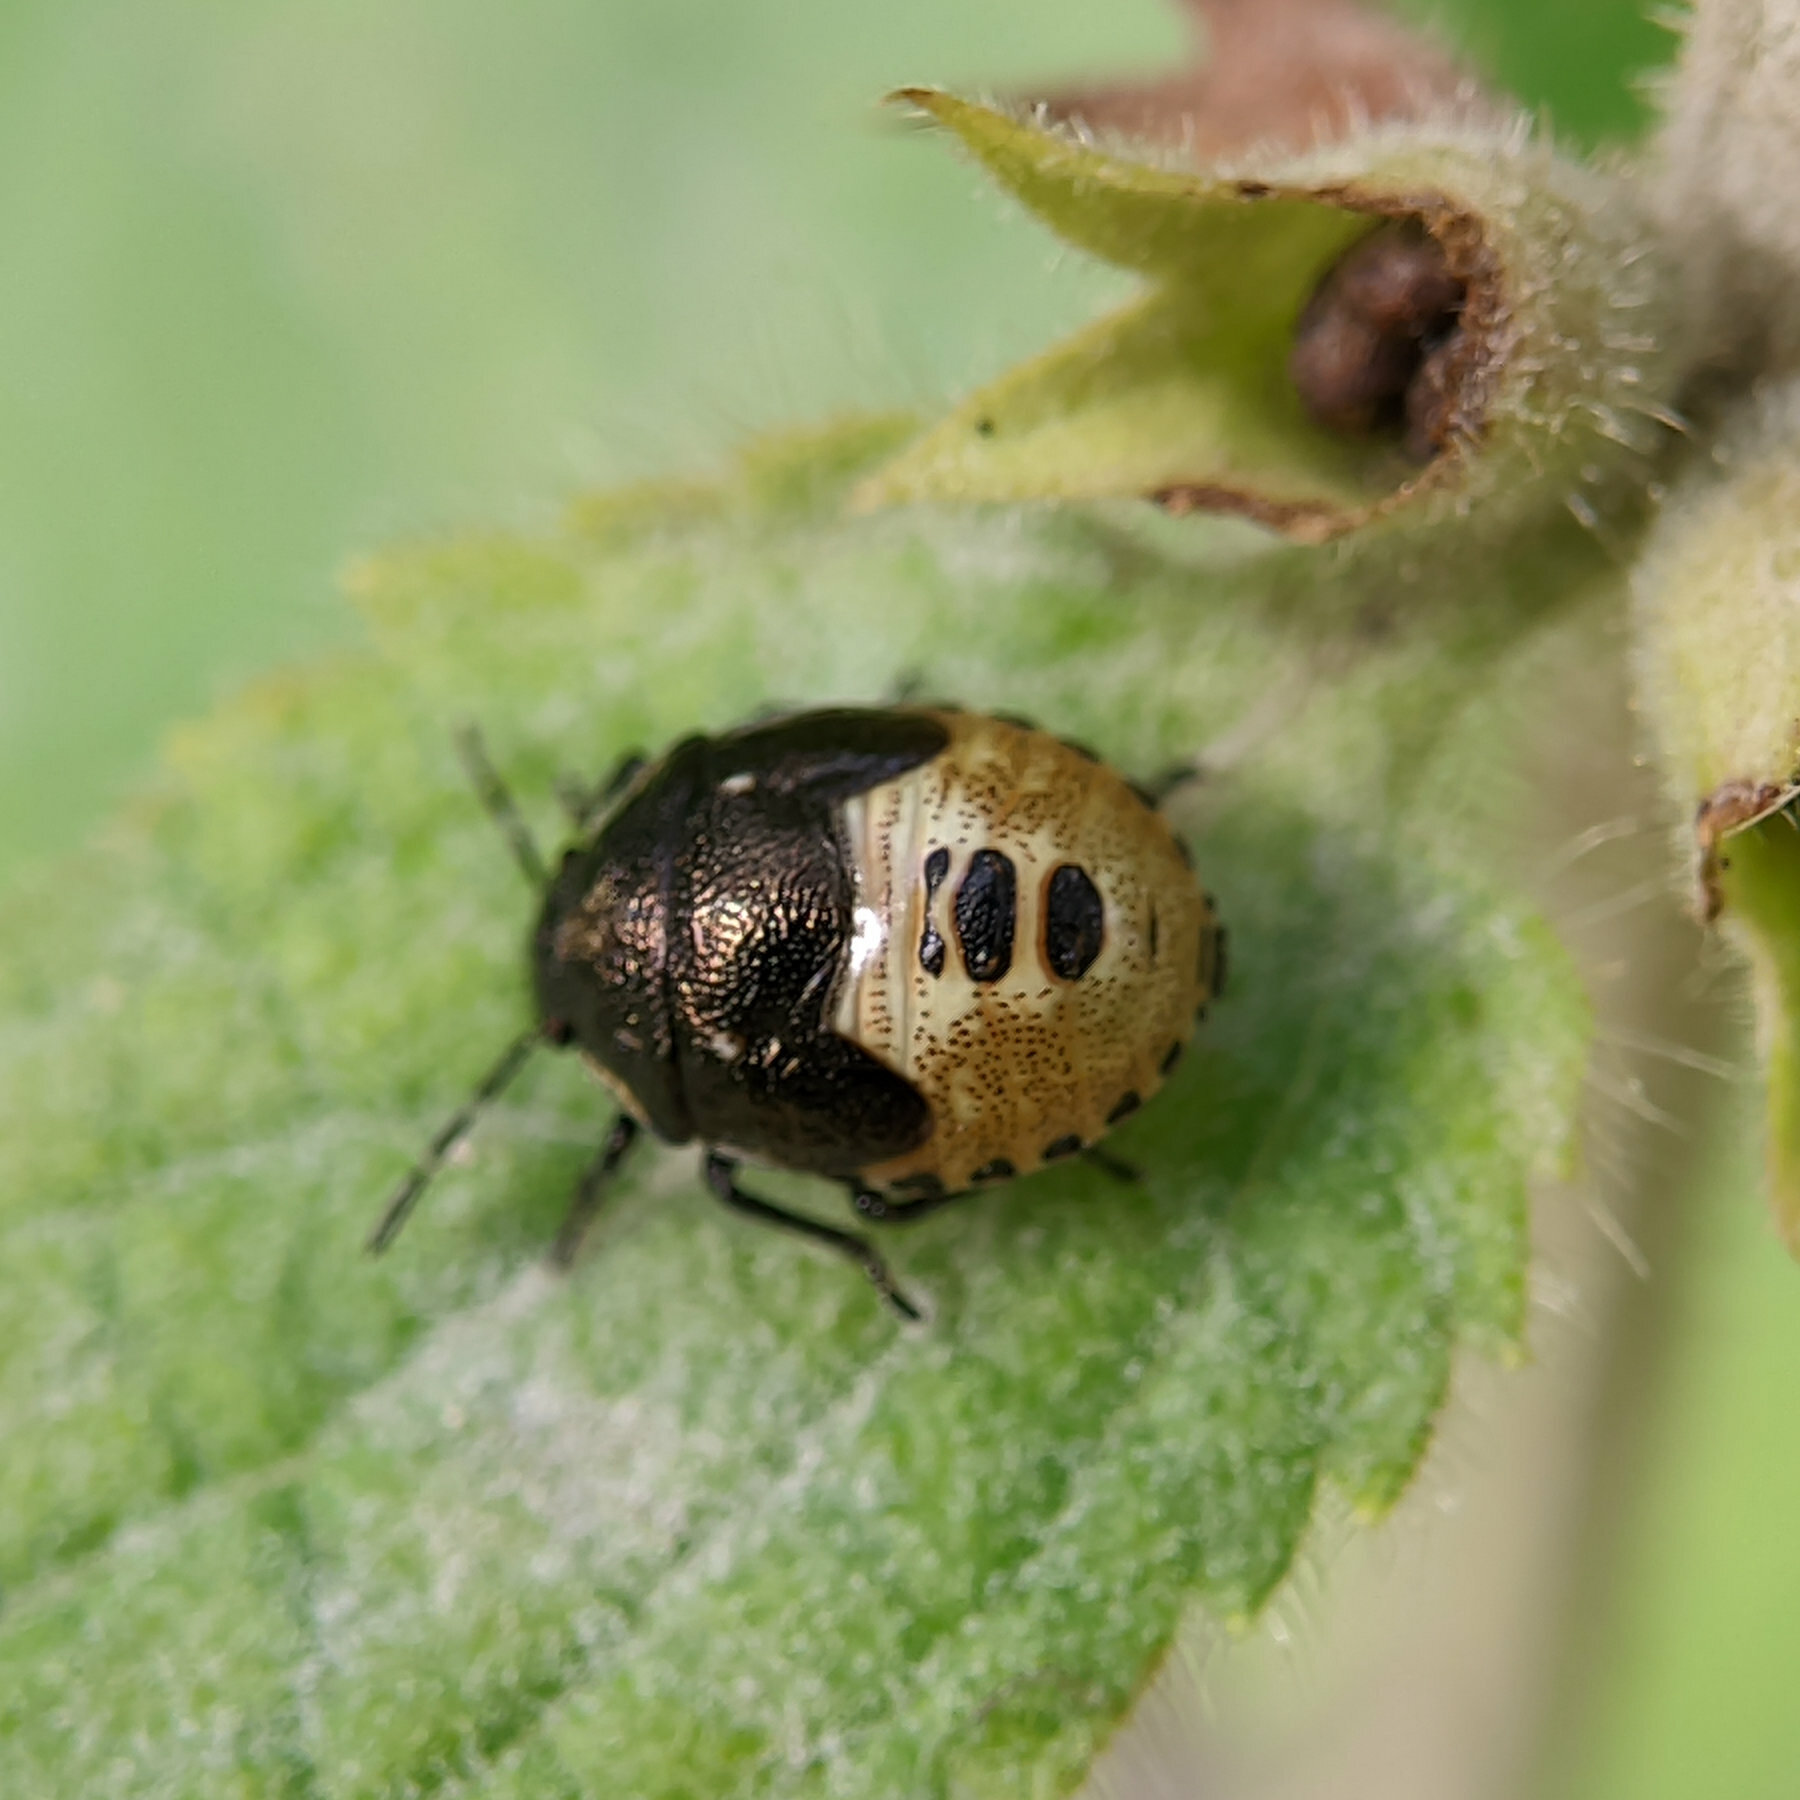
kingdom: Animalia
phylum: Arthropoda
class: Insecta
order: Hemiptera
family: Pentatomidae
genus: Eysarcoris
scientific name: Eysarcoris venustissimus
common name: Woundwort shieldbug
